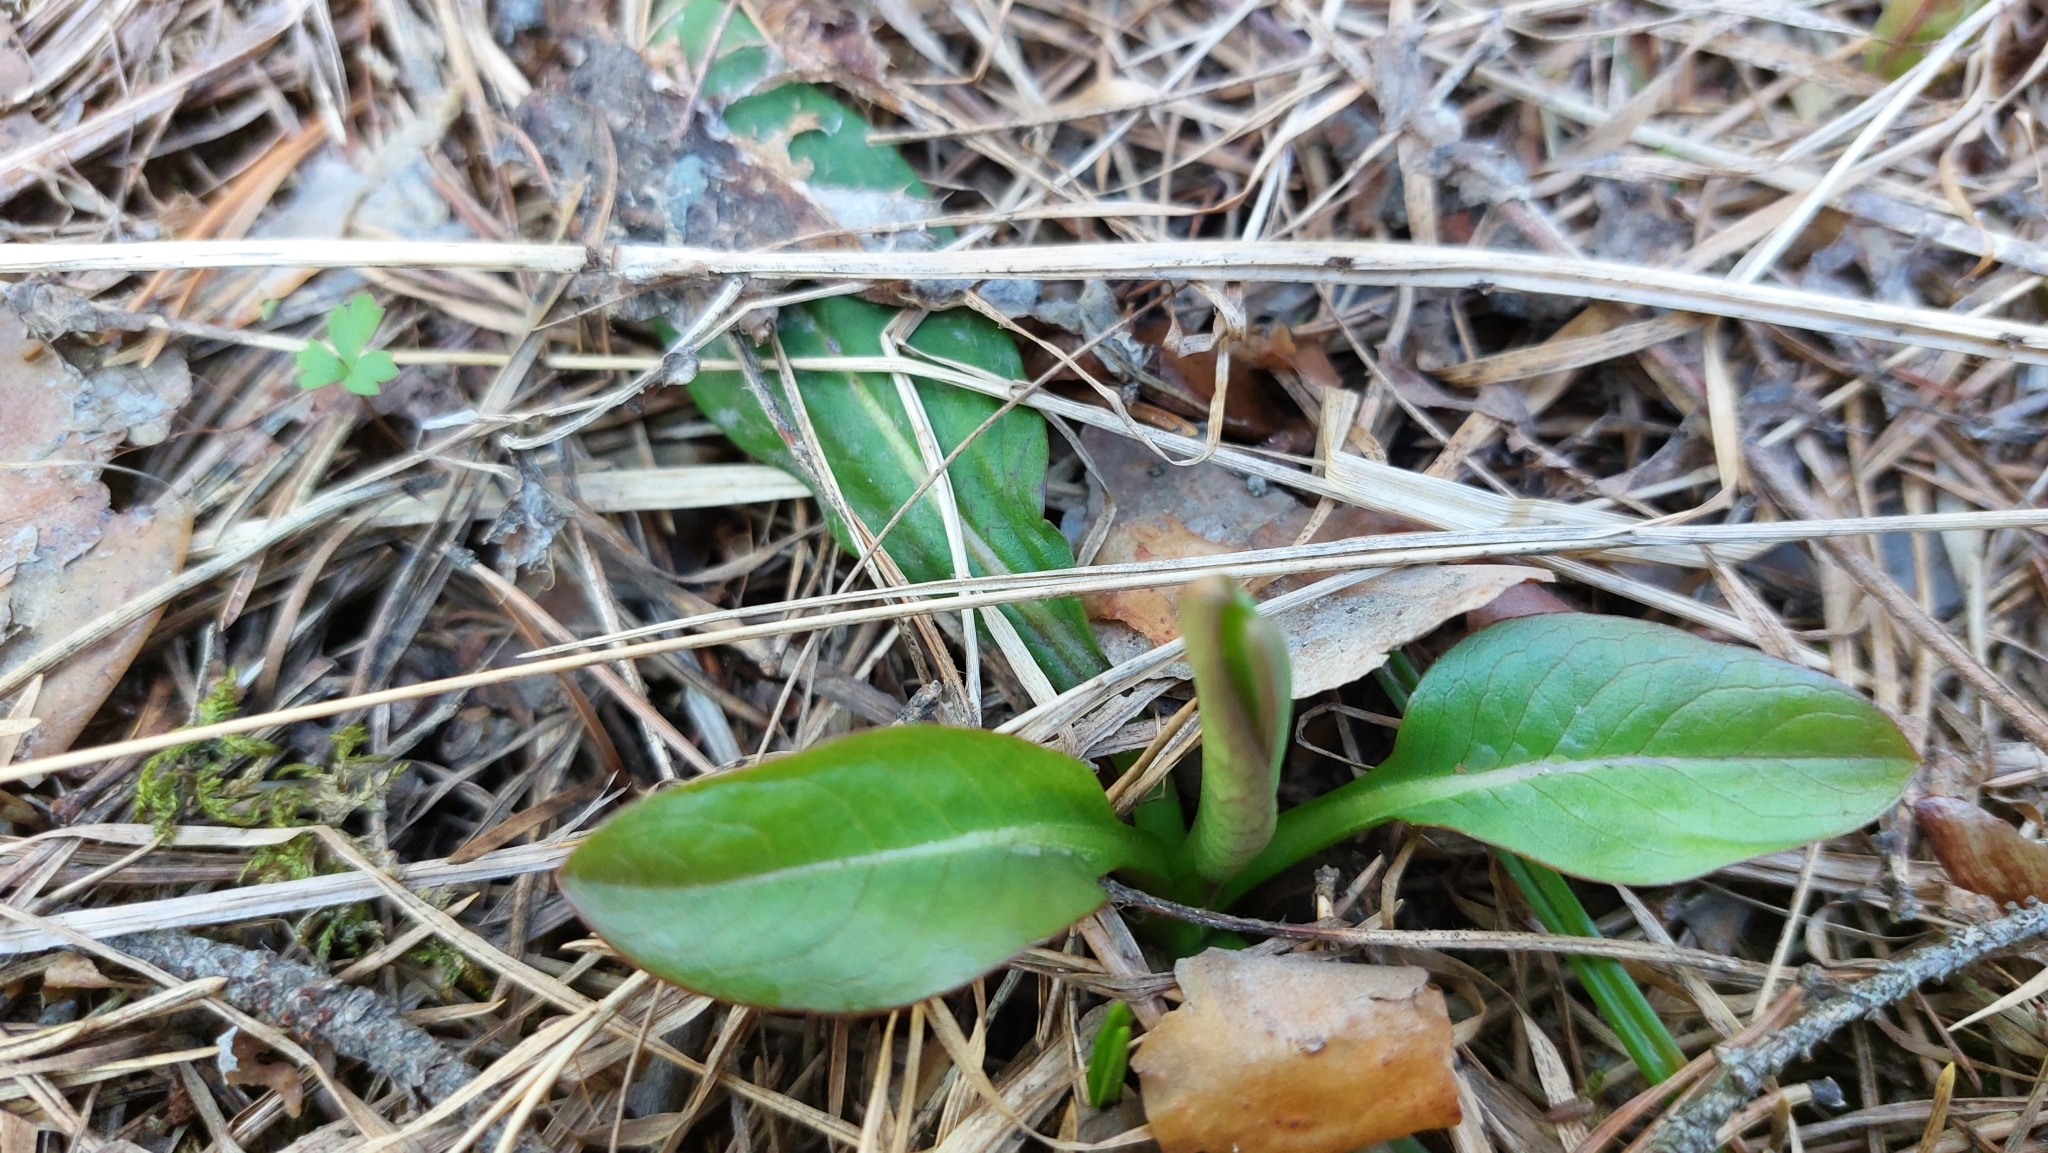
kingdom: Plantae
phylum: Tracheophyta
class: Magnoliopsida
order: Dipsacales
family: Caprifoliaceae
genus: Succisa
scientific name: Succisa pratensis
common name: Devil's-bit
